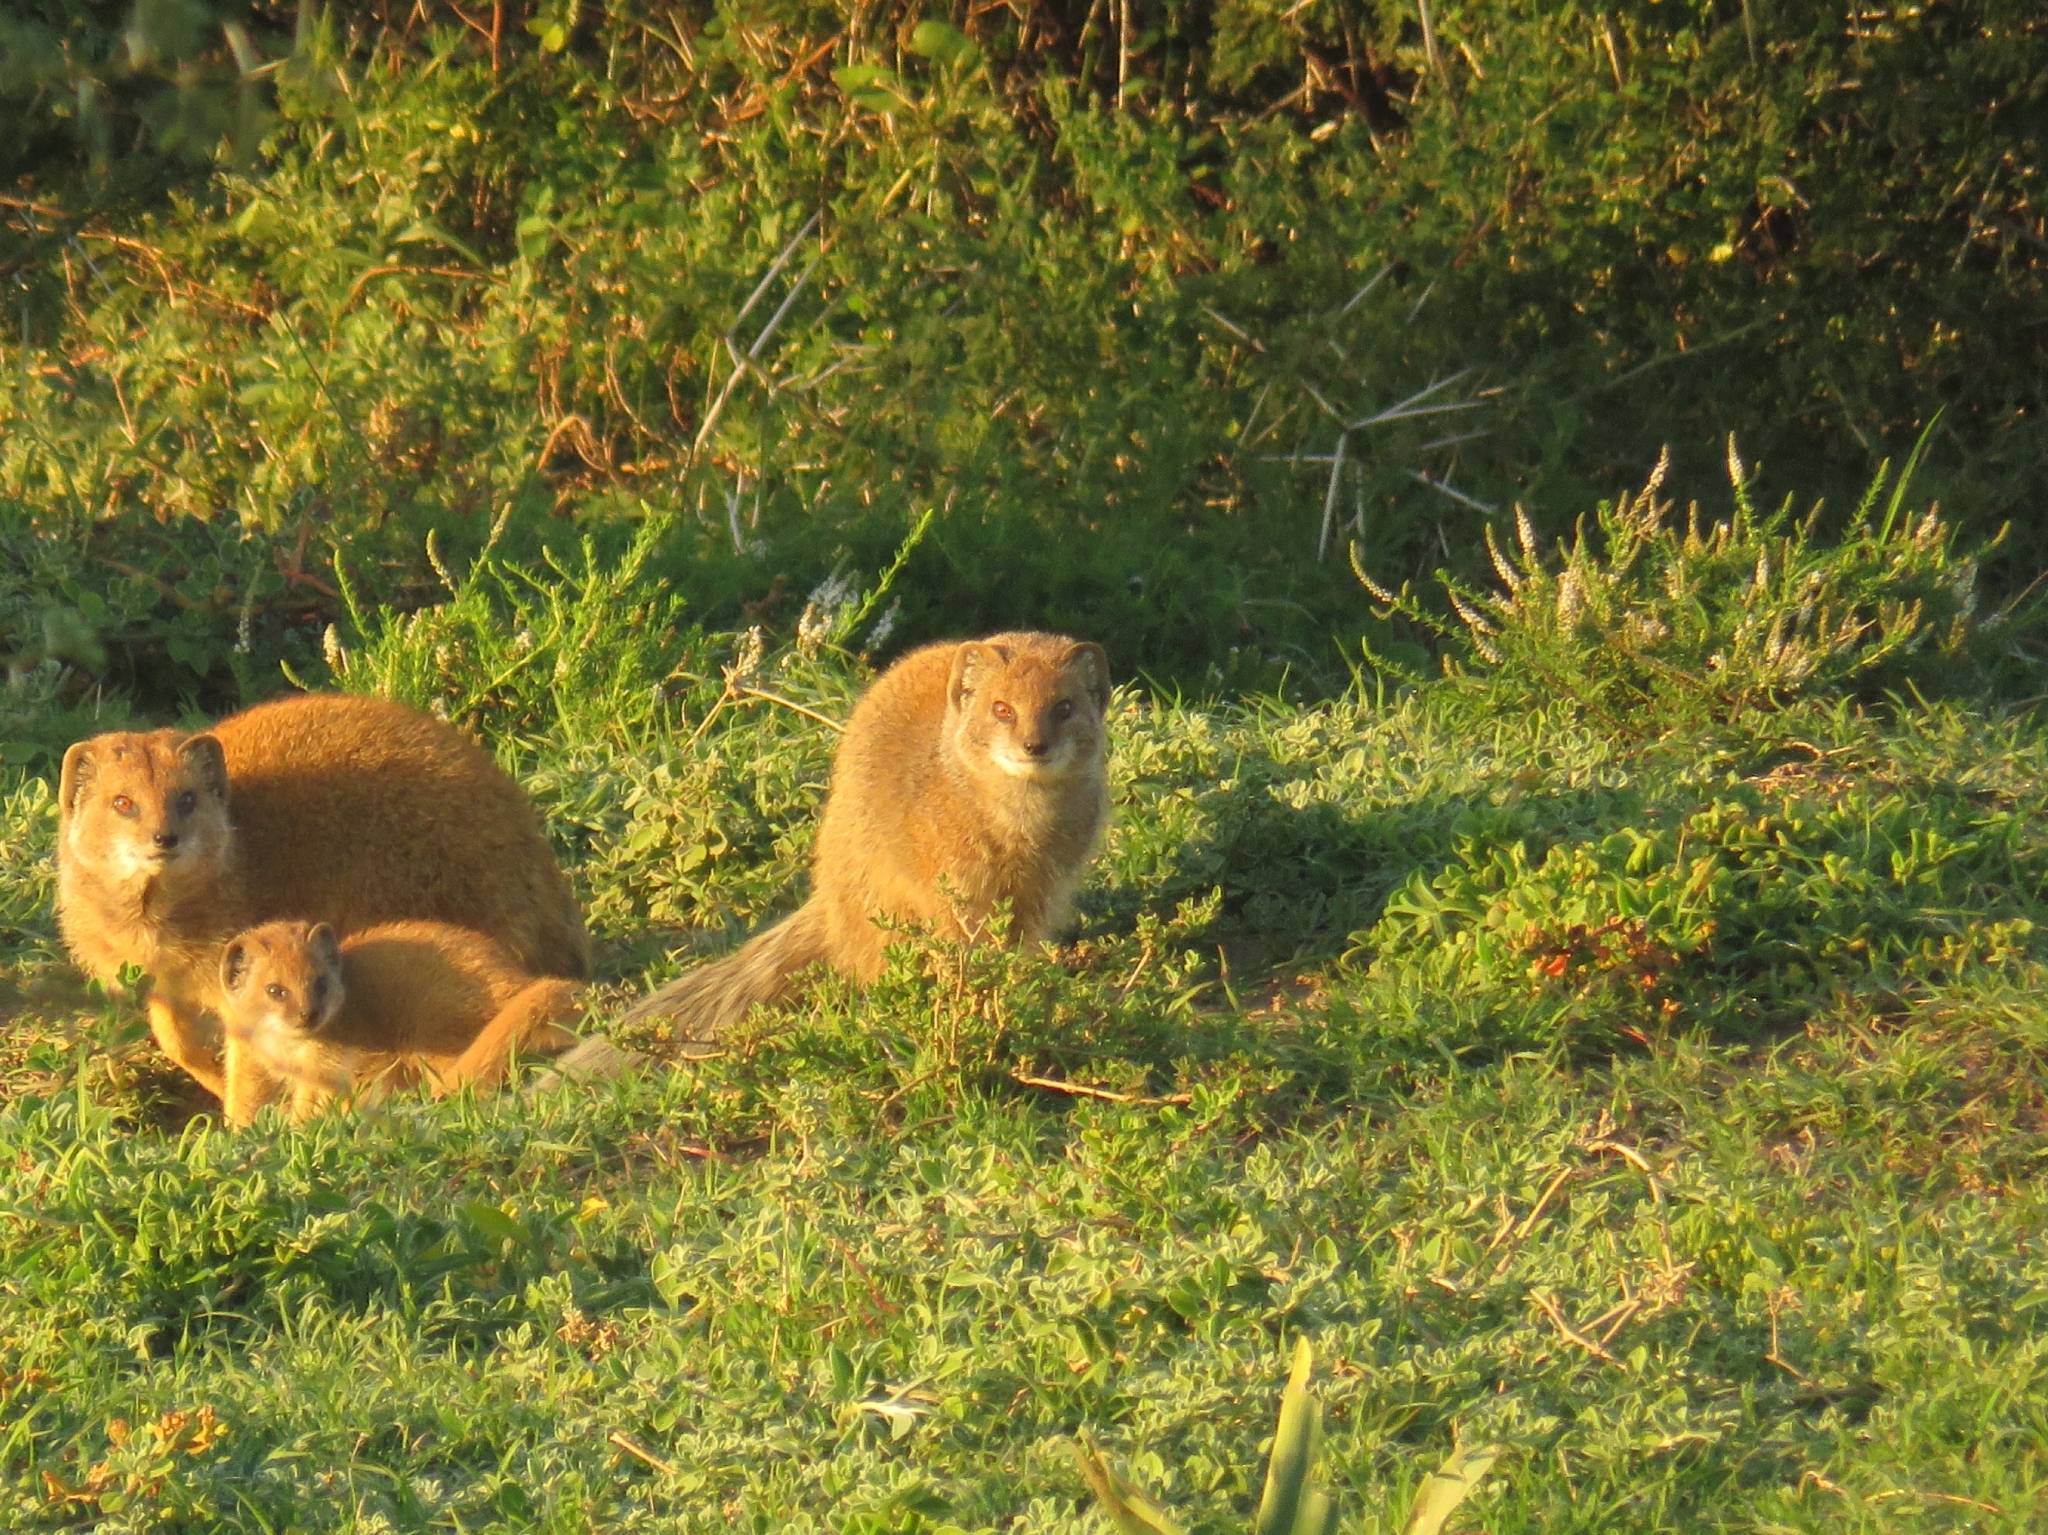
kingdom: Animalia
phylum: Chordata
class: Mammalia
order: Carnivora
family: Herpestidae
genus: Cynictis
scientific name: Cynictis penicillata
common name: Yellow mongoose
